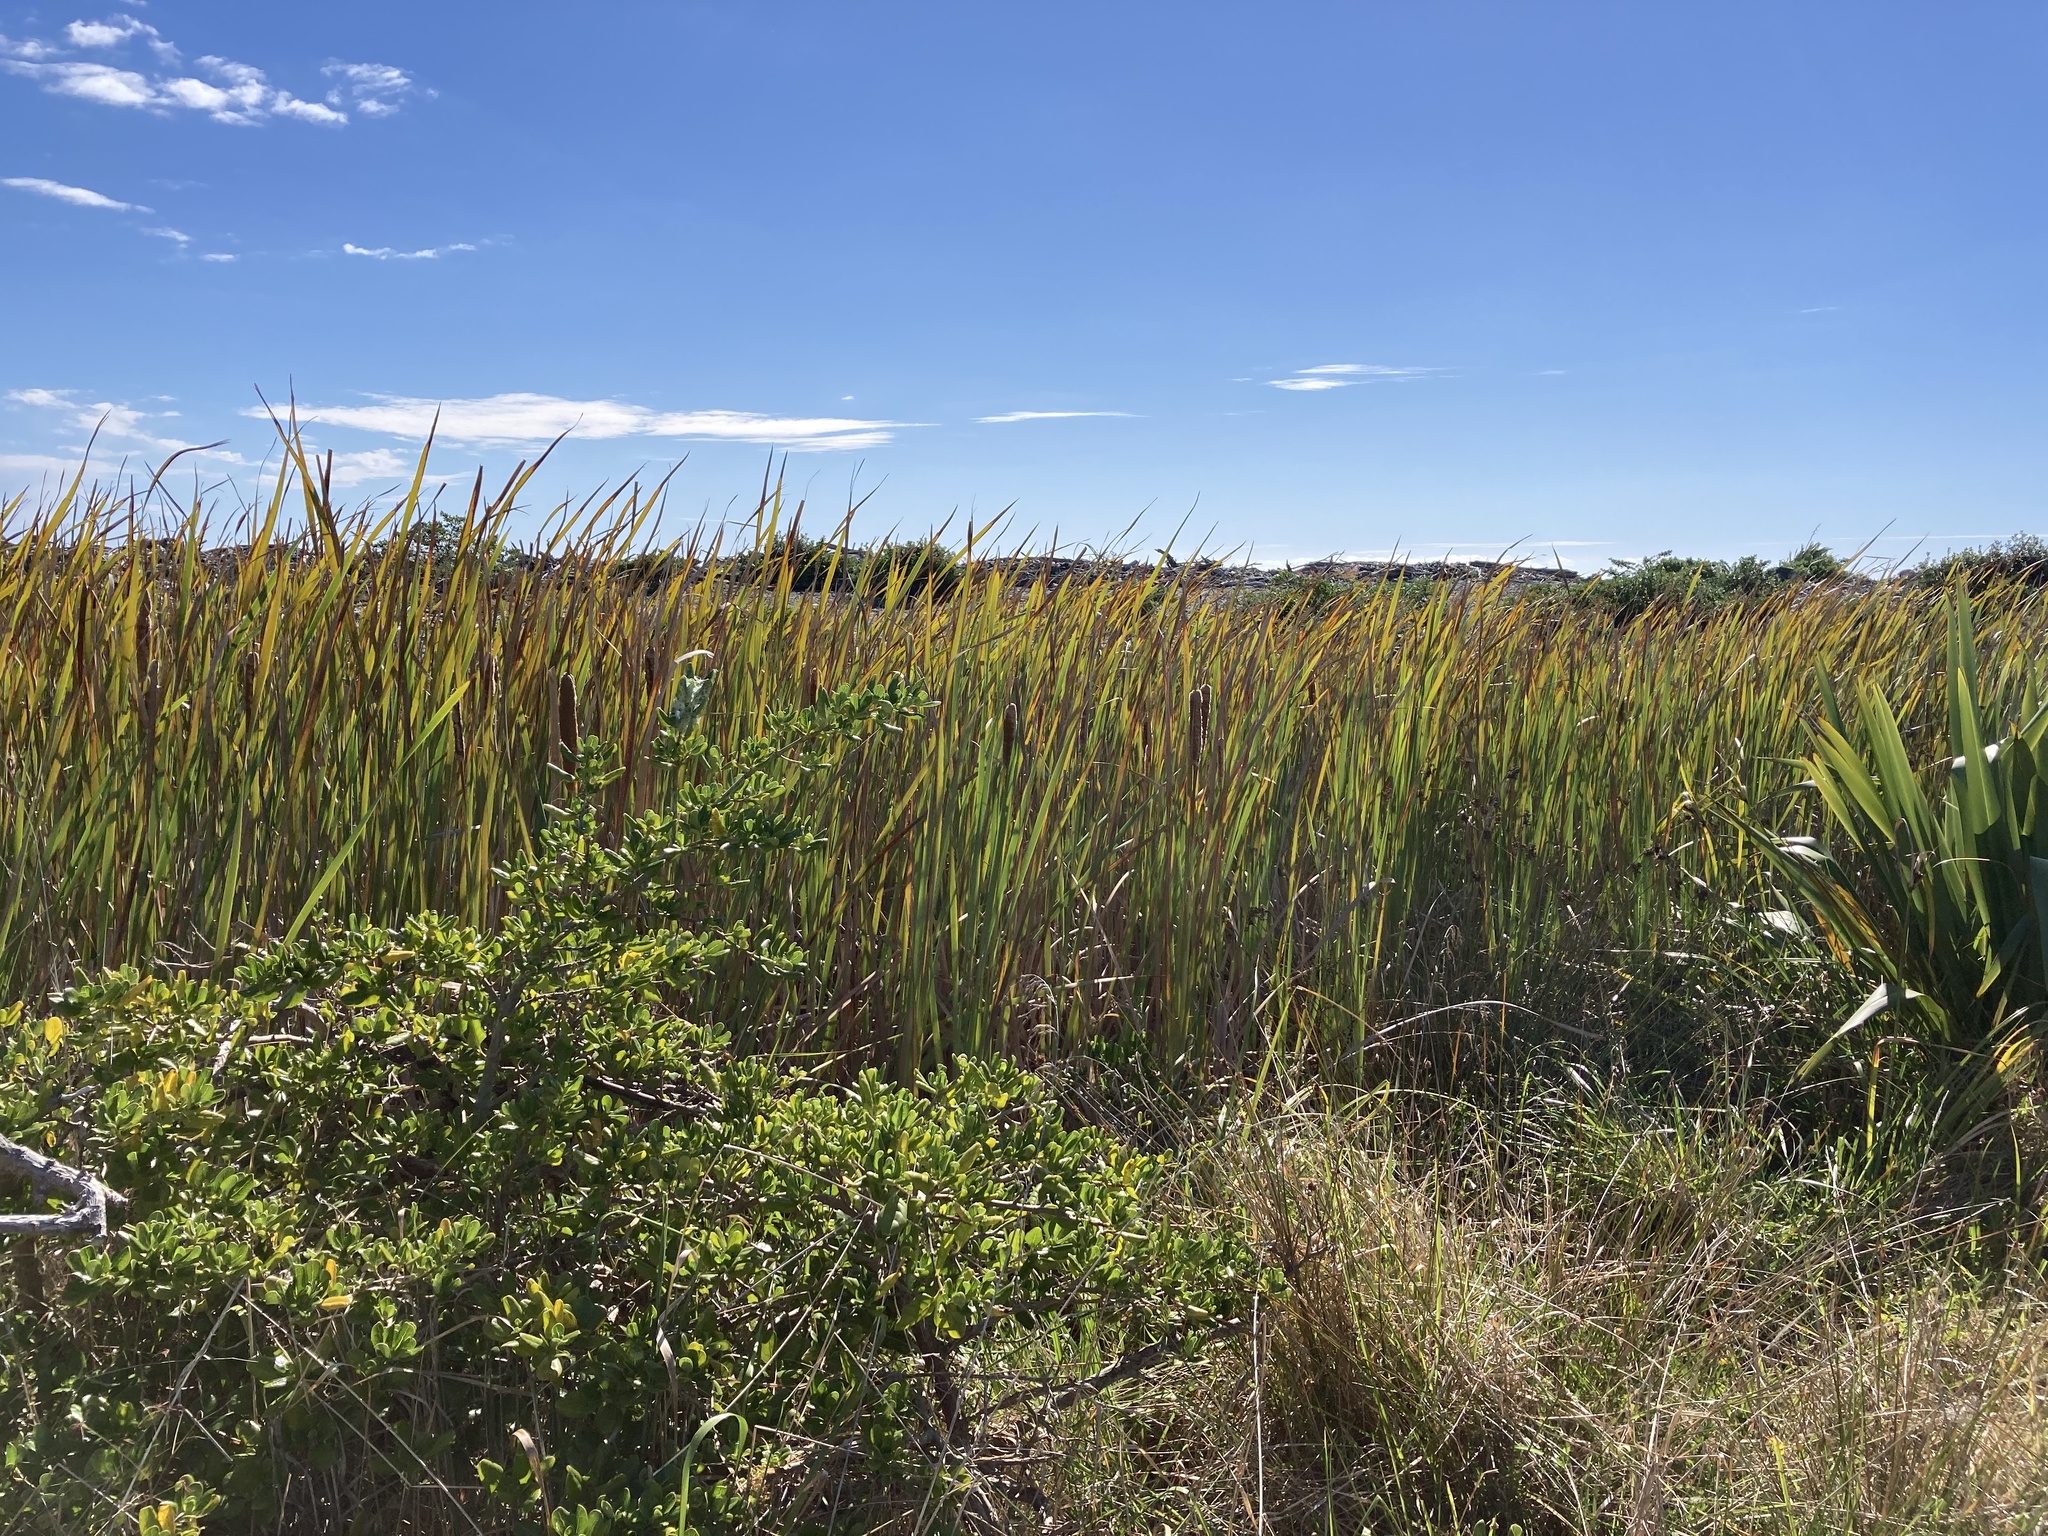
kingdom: Plantae
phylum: Tracheophyta
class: Liliopsida
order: Poales
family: Typhaceae
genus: Typha
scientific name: Typha orientalis
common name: Bullrush
